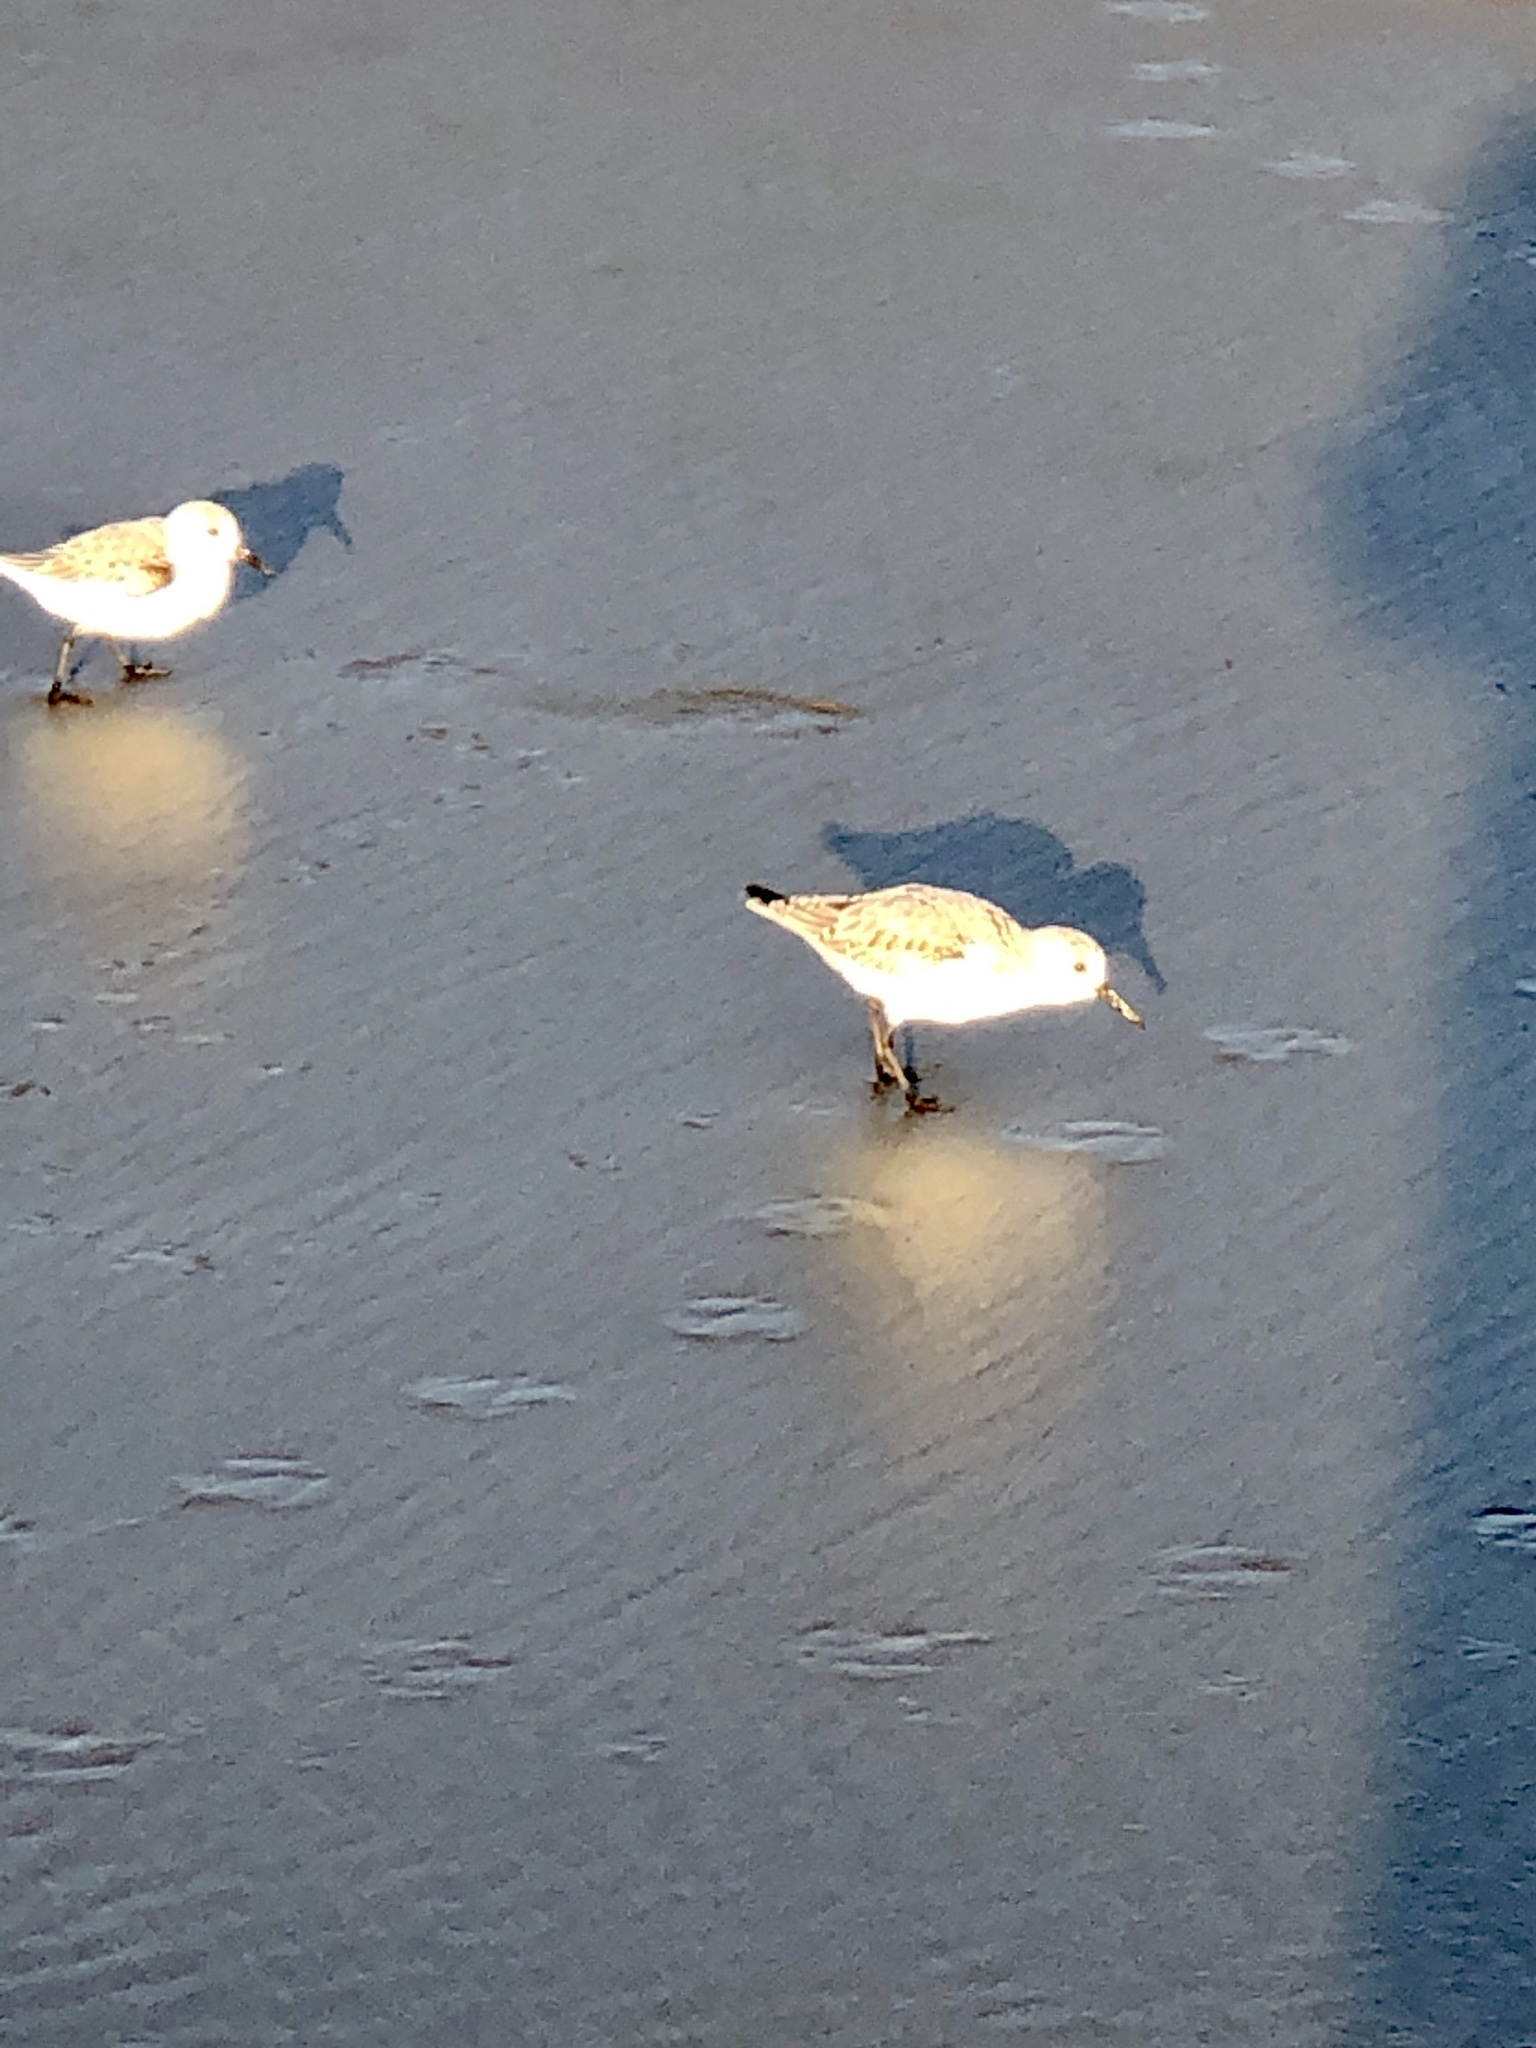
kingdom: Animalia
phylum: Chordata
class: Aves
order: Charadriiformes
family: Scolopacidae
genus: Calidris
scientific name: Calidris alba
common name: Sanderling
